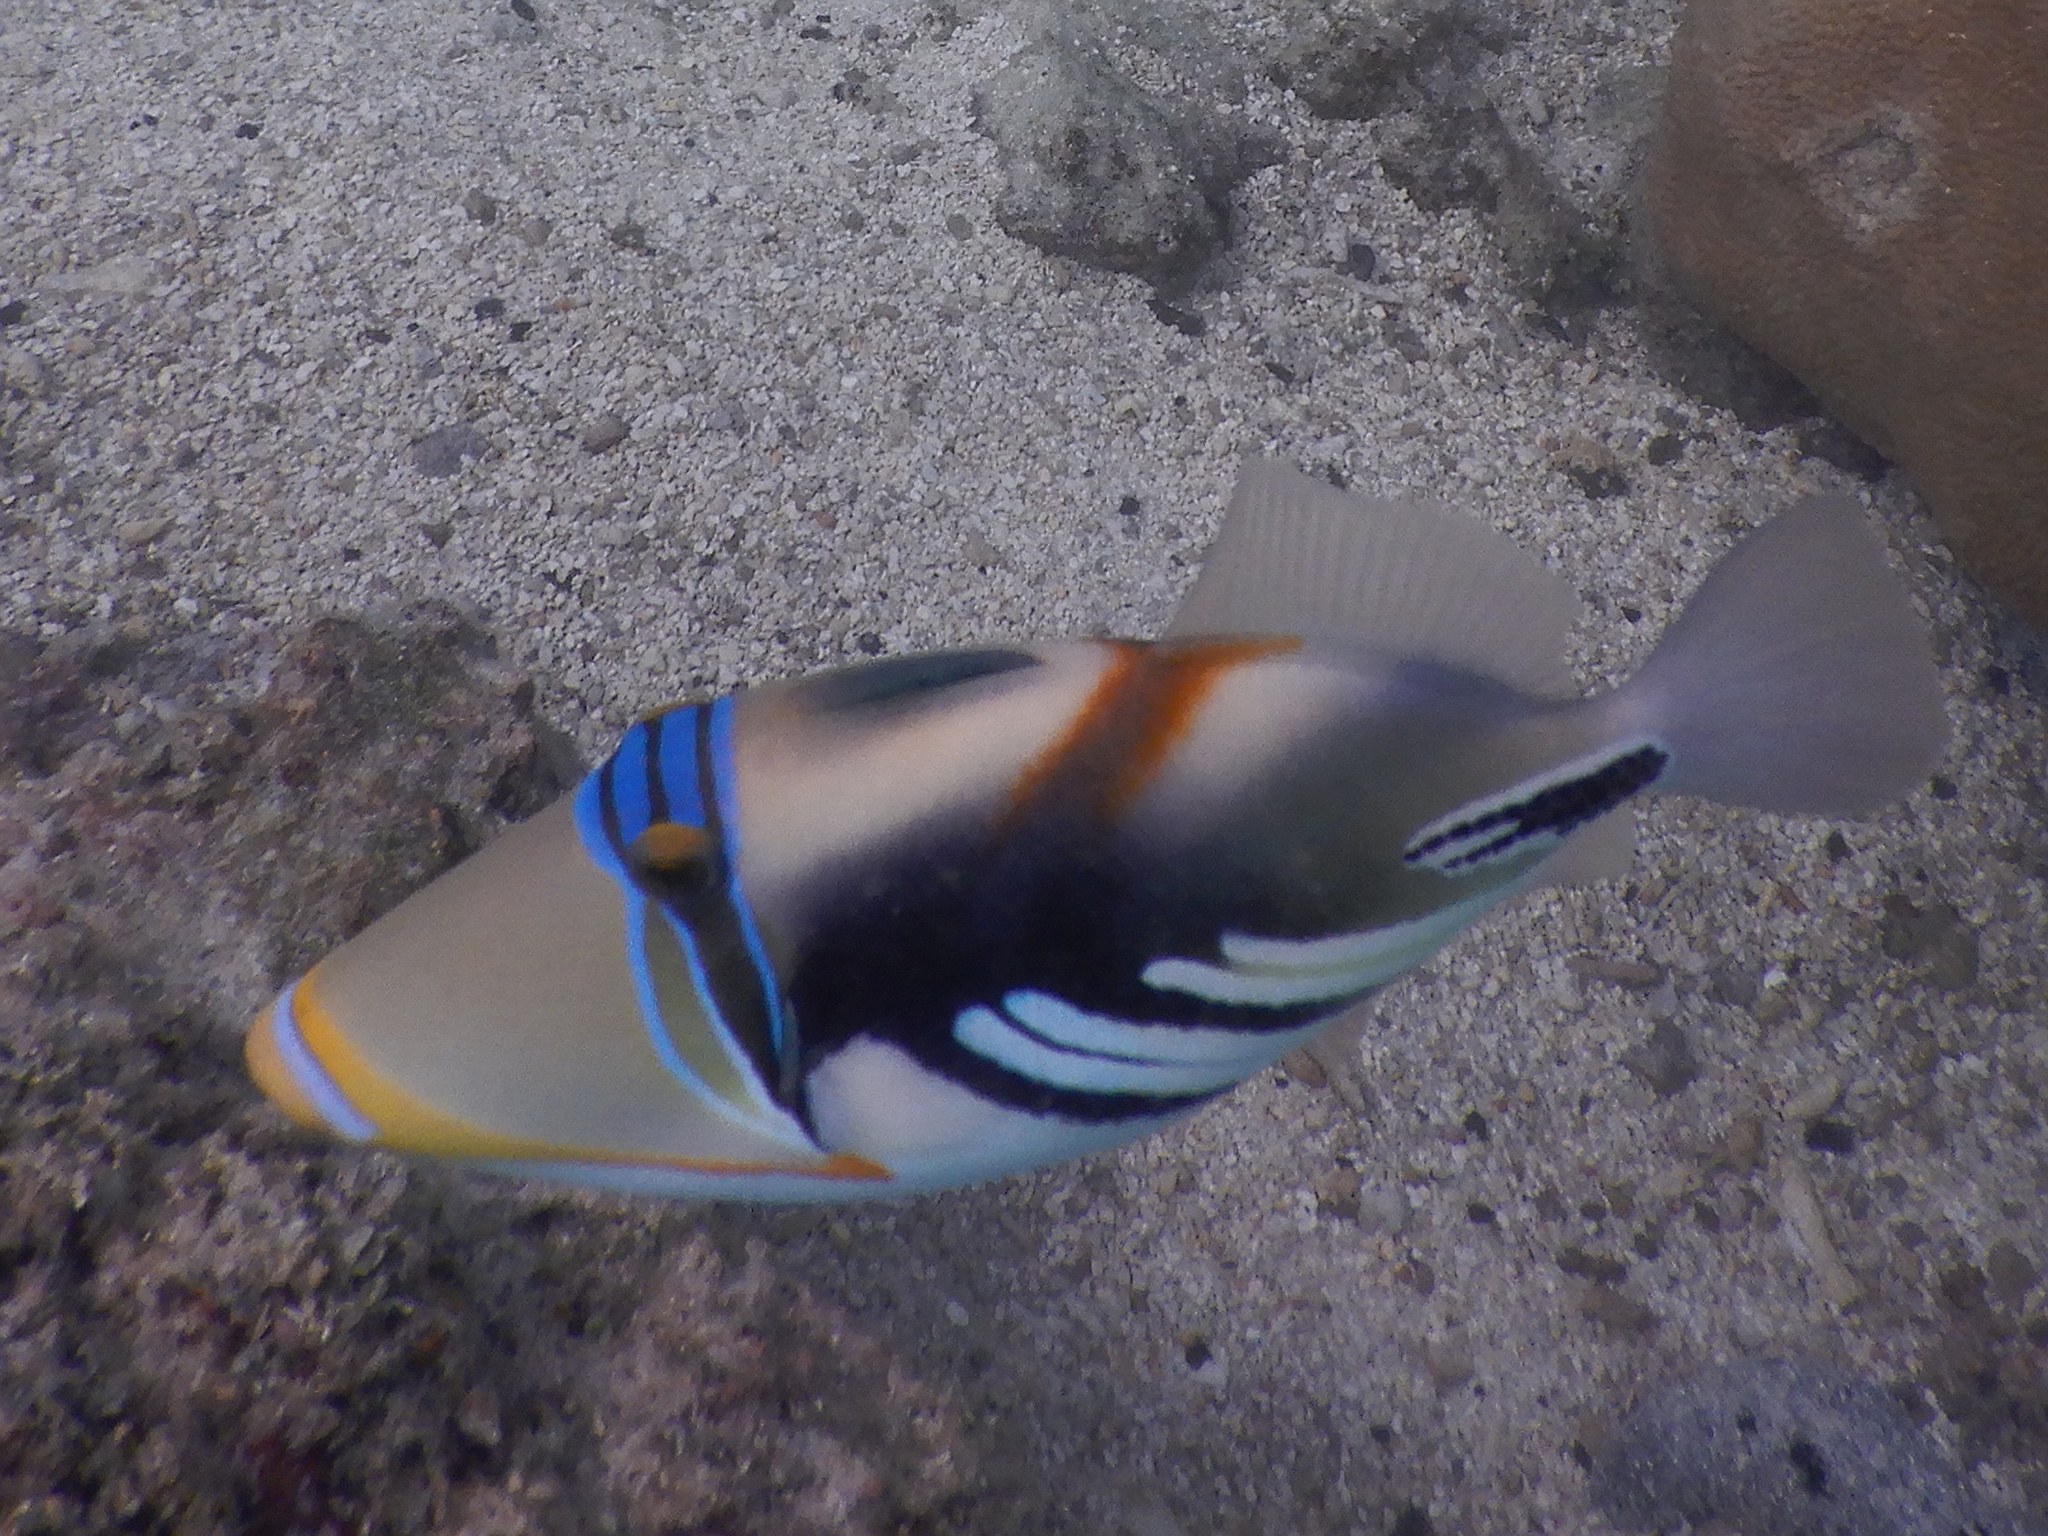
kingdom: Animalia
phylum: Chordata
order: Tetraodontiformes
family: Balistidae
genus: Rhinecanthus
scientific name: Rhinecanthus aculeatus
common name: White-banded triggerfish
